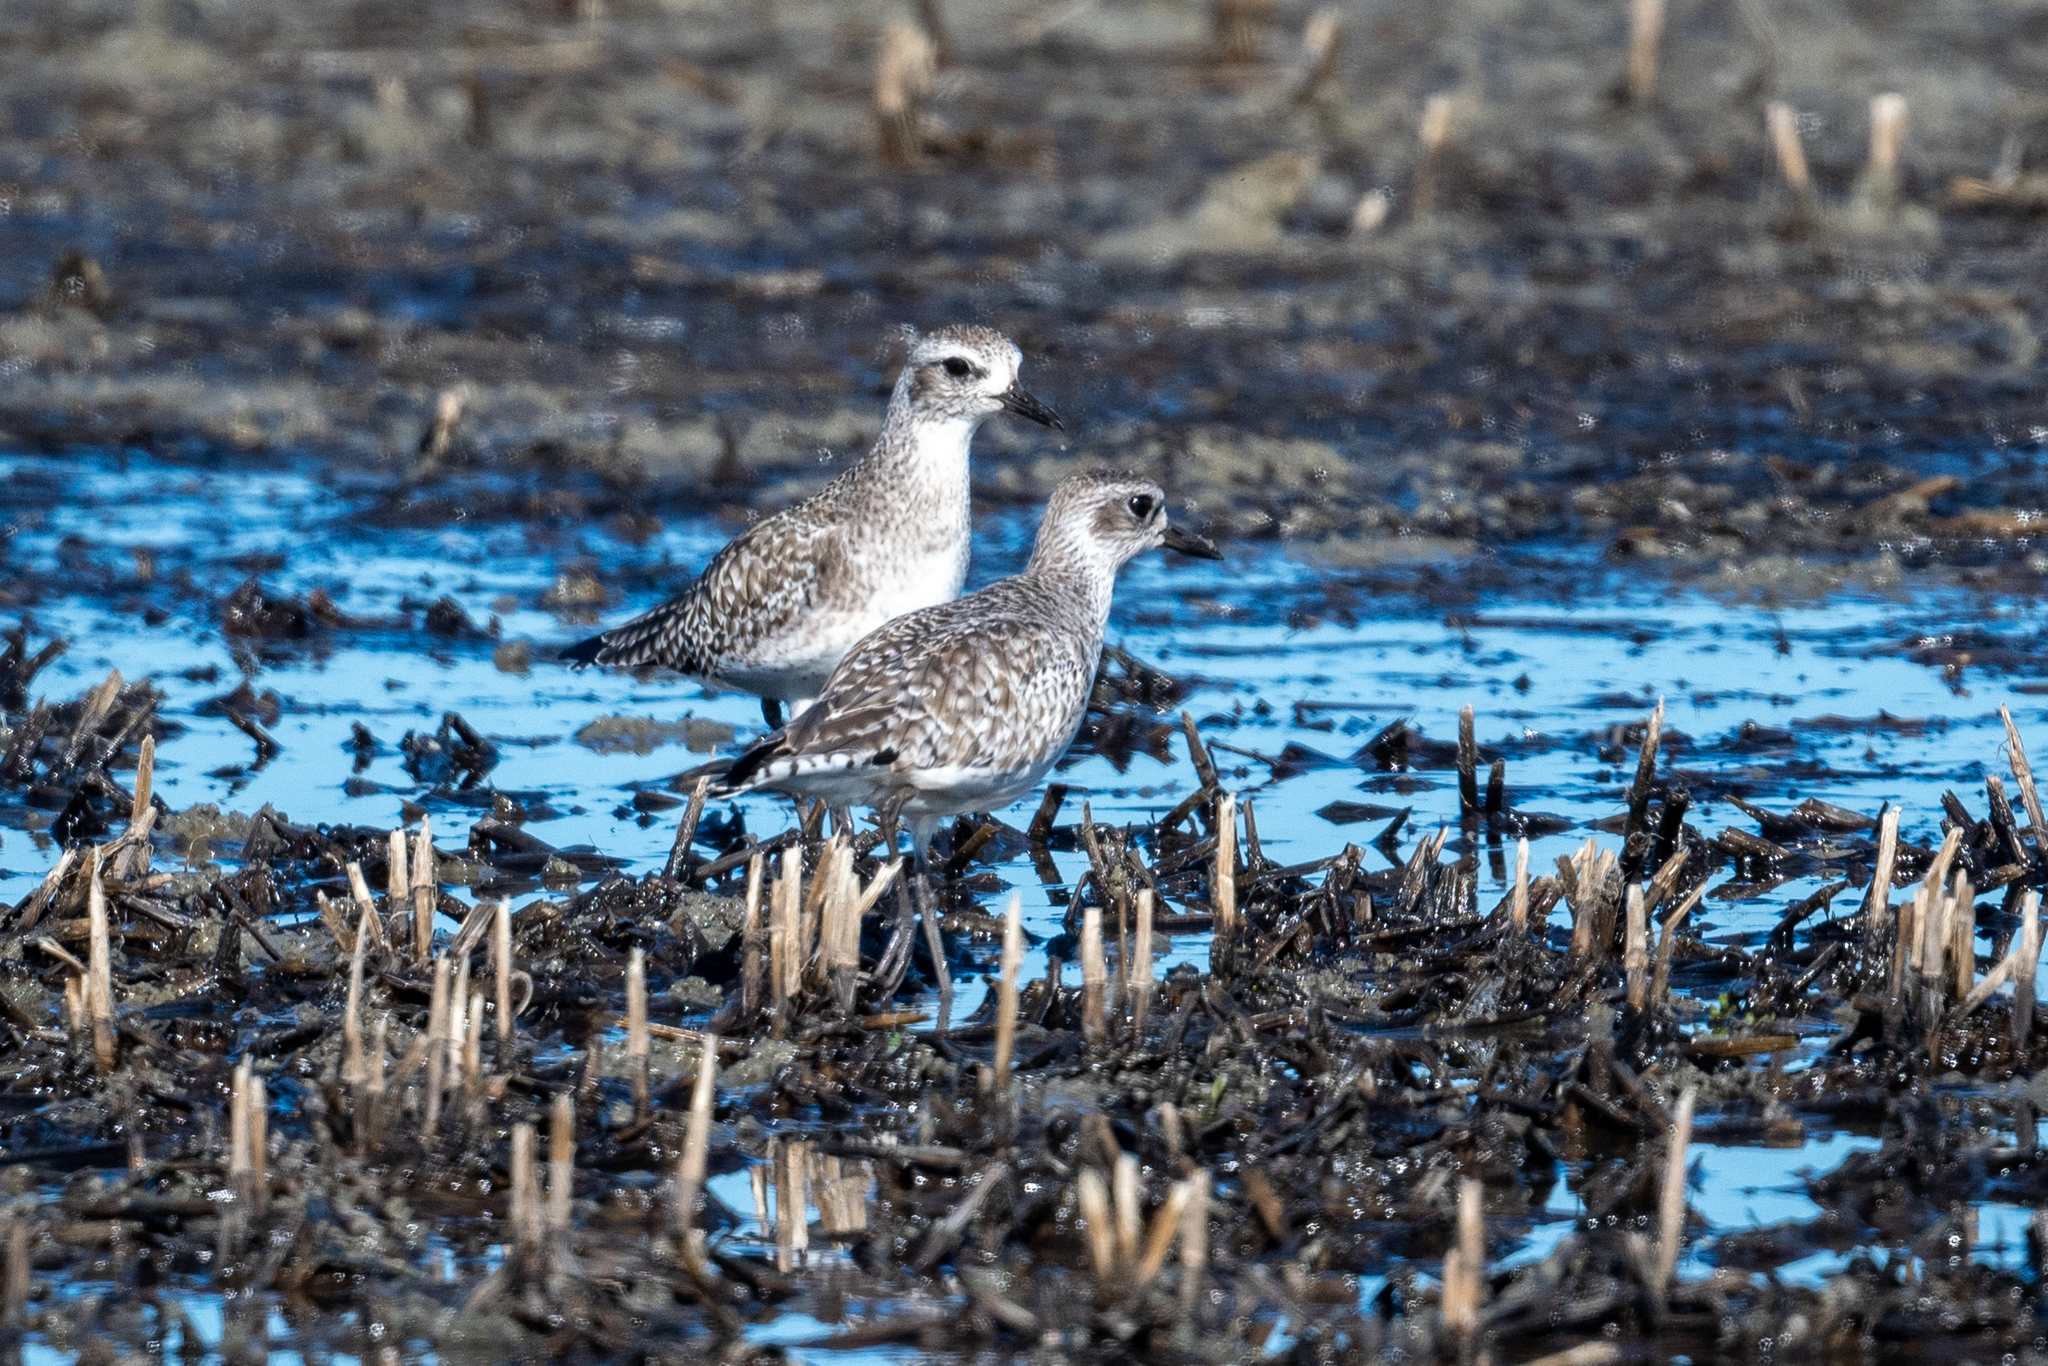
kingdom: Animalia
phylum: Chordata
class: Aves
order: Charadriiformes
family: Charadriidae
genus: Pluvialis
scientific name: Pluvialis squatarola
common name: Grey plover
